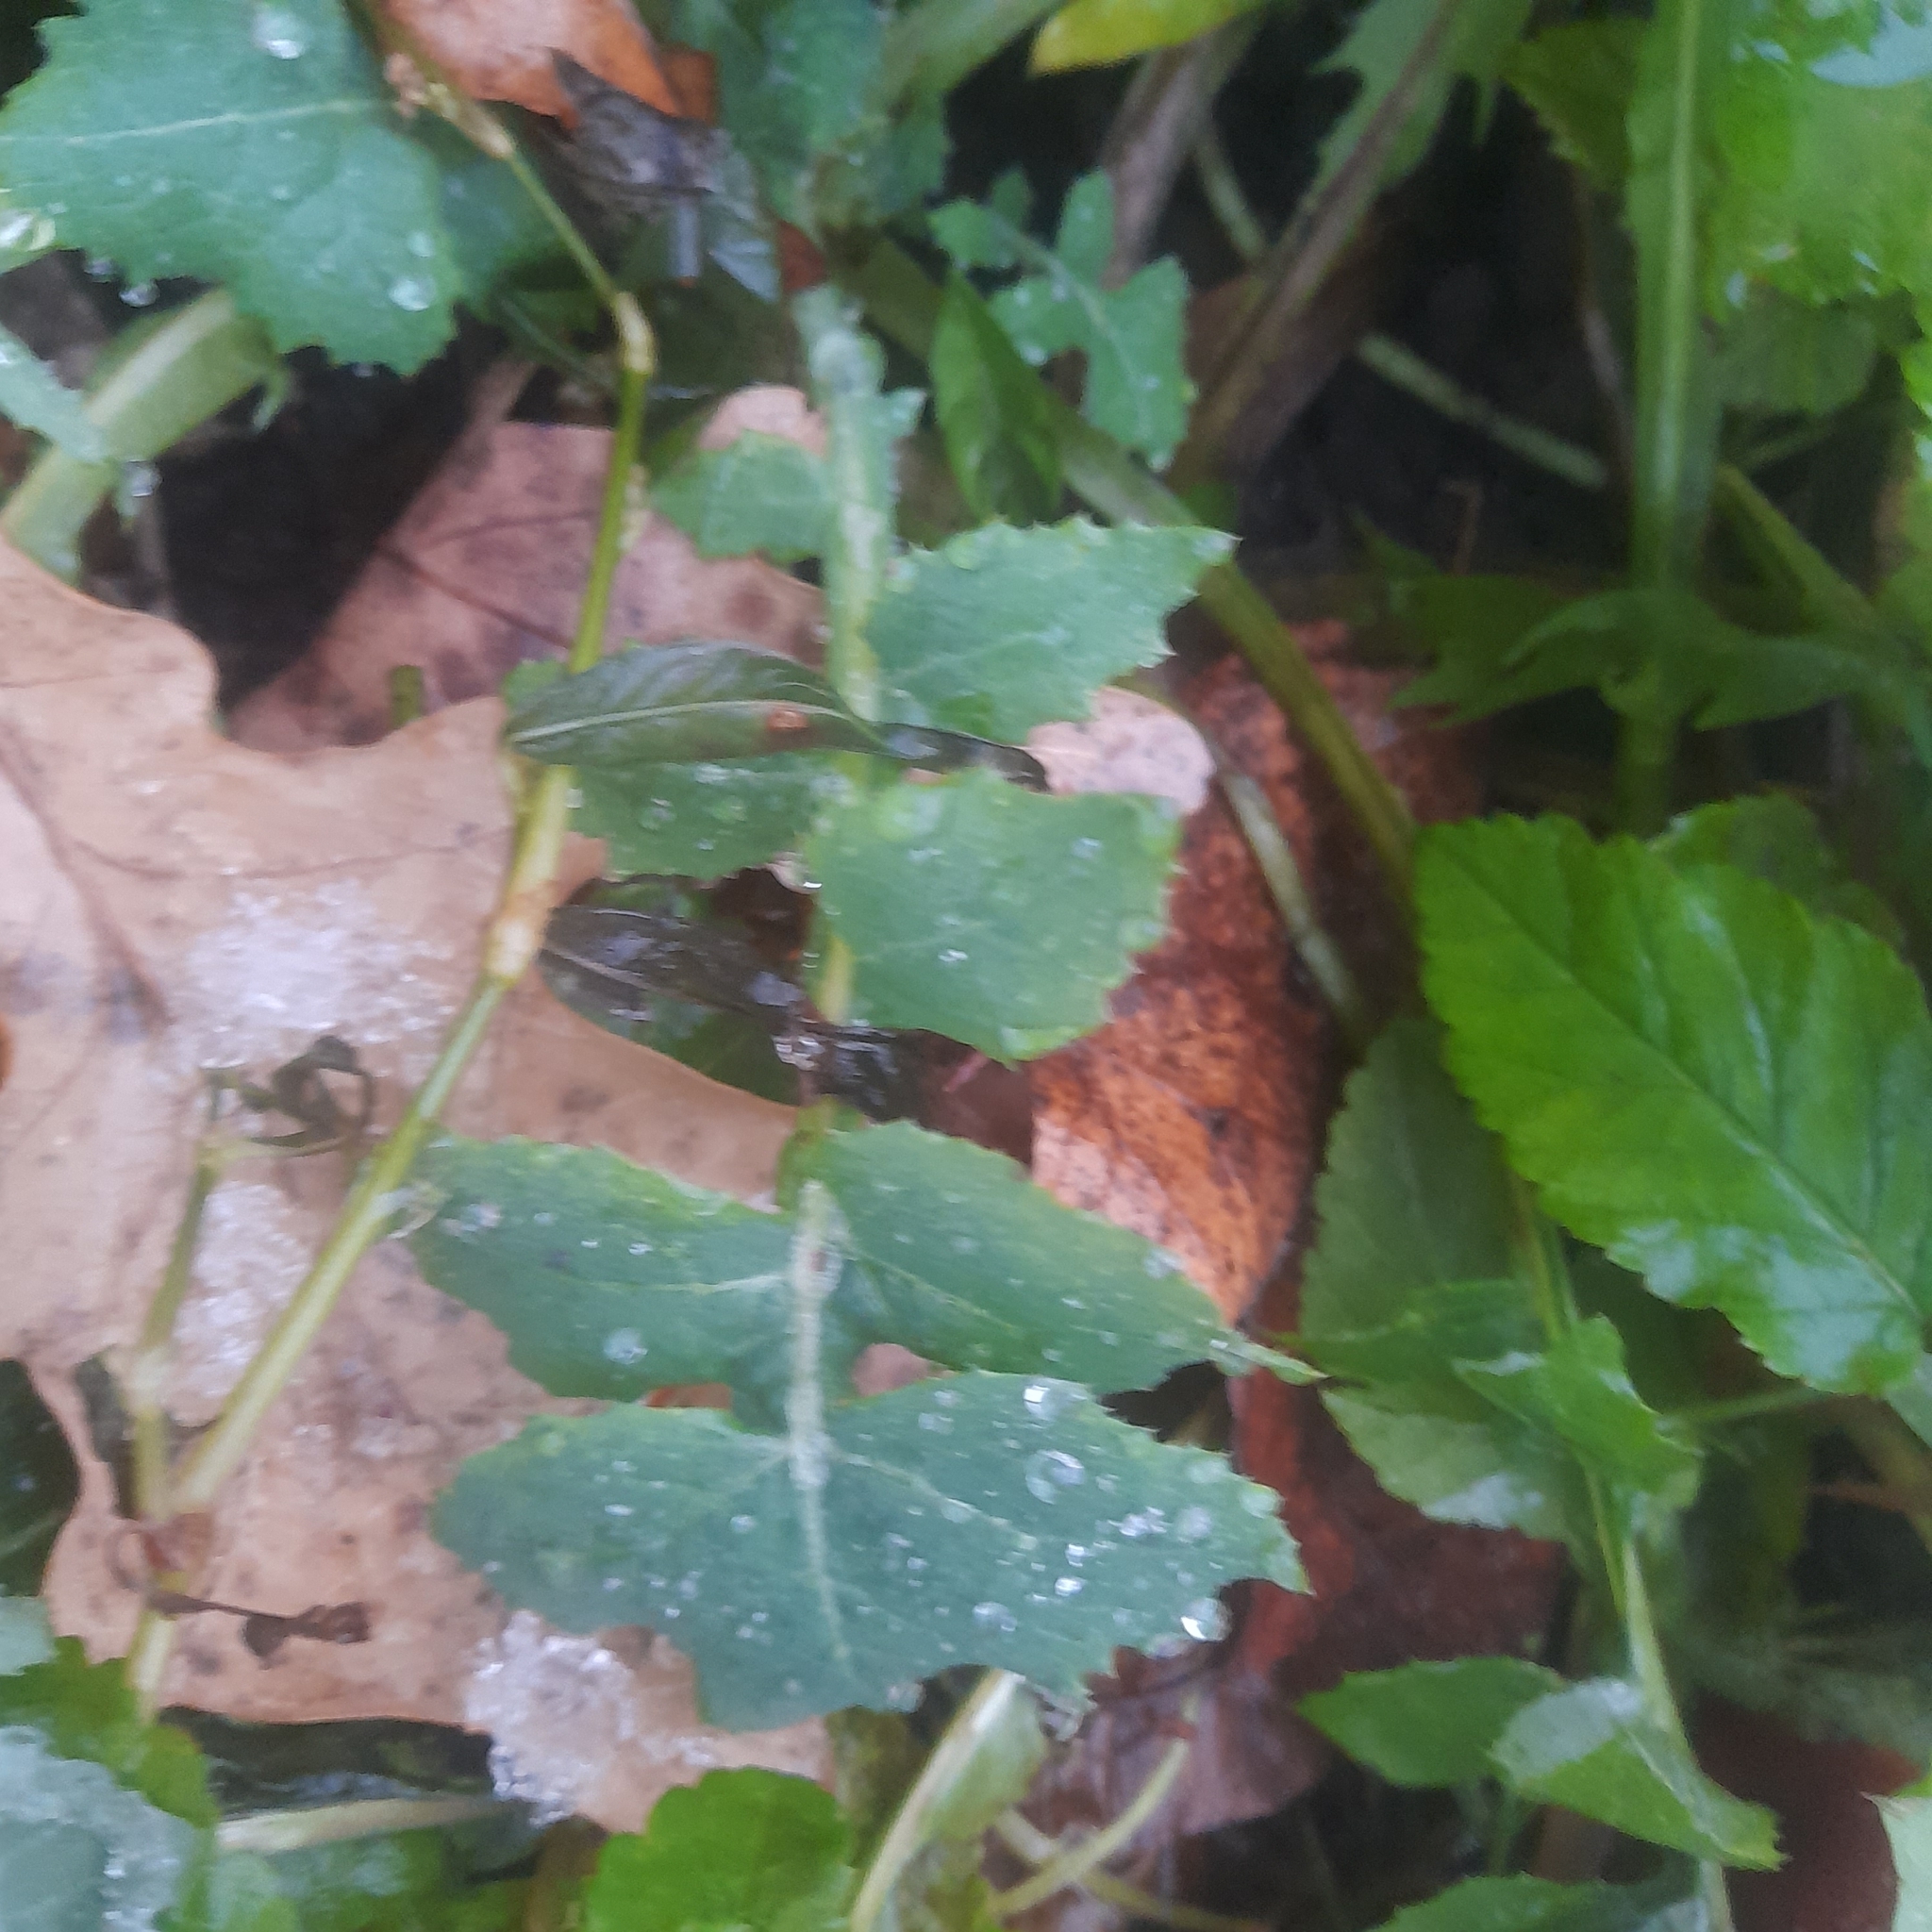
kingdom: Plantae
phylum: Tracheophyta
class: Magnoliopsida
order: Asterales
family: Asteraceae
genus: Sonchus
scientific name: Sonchus oleraceus
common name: Common sowthistle
